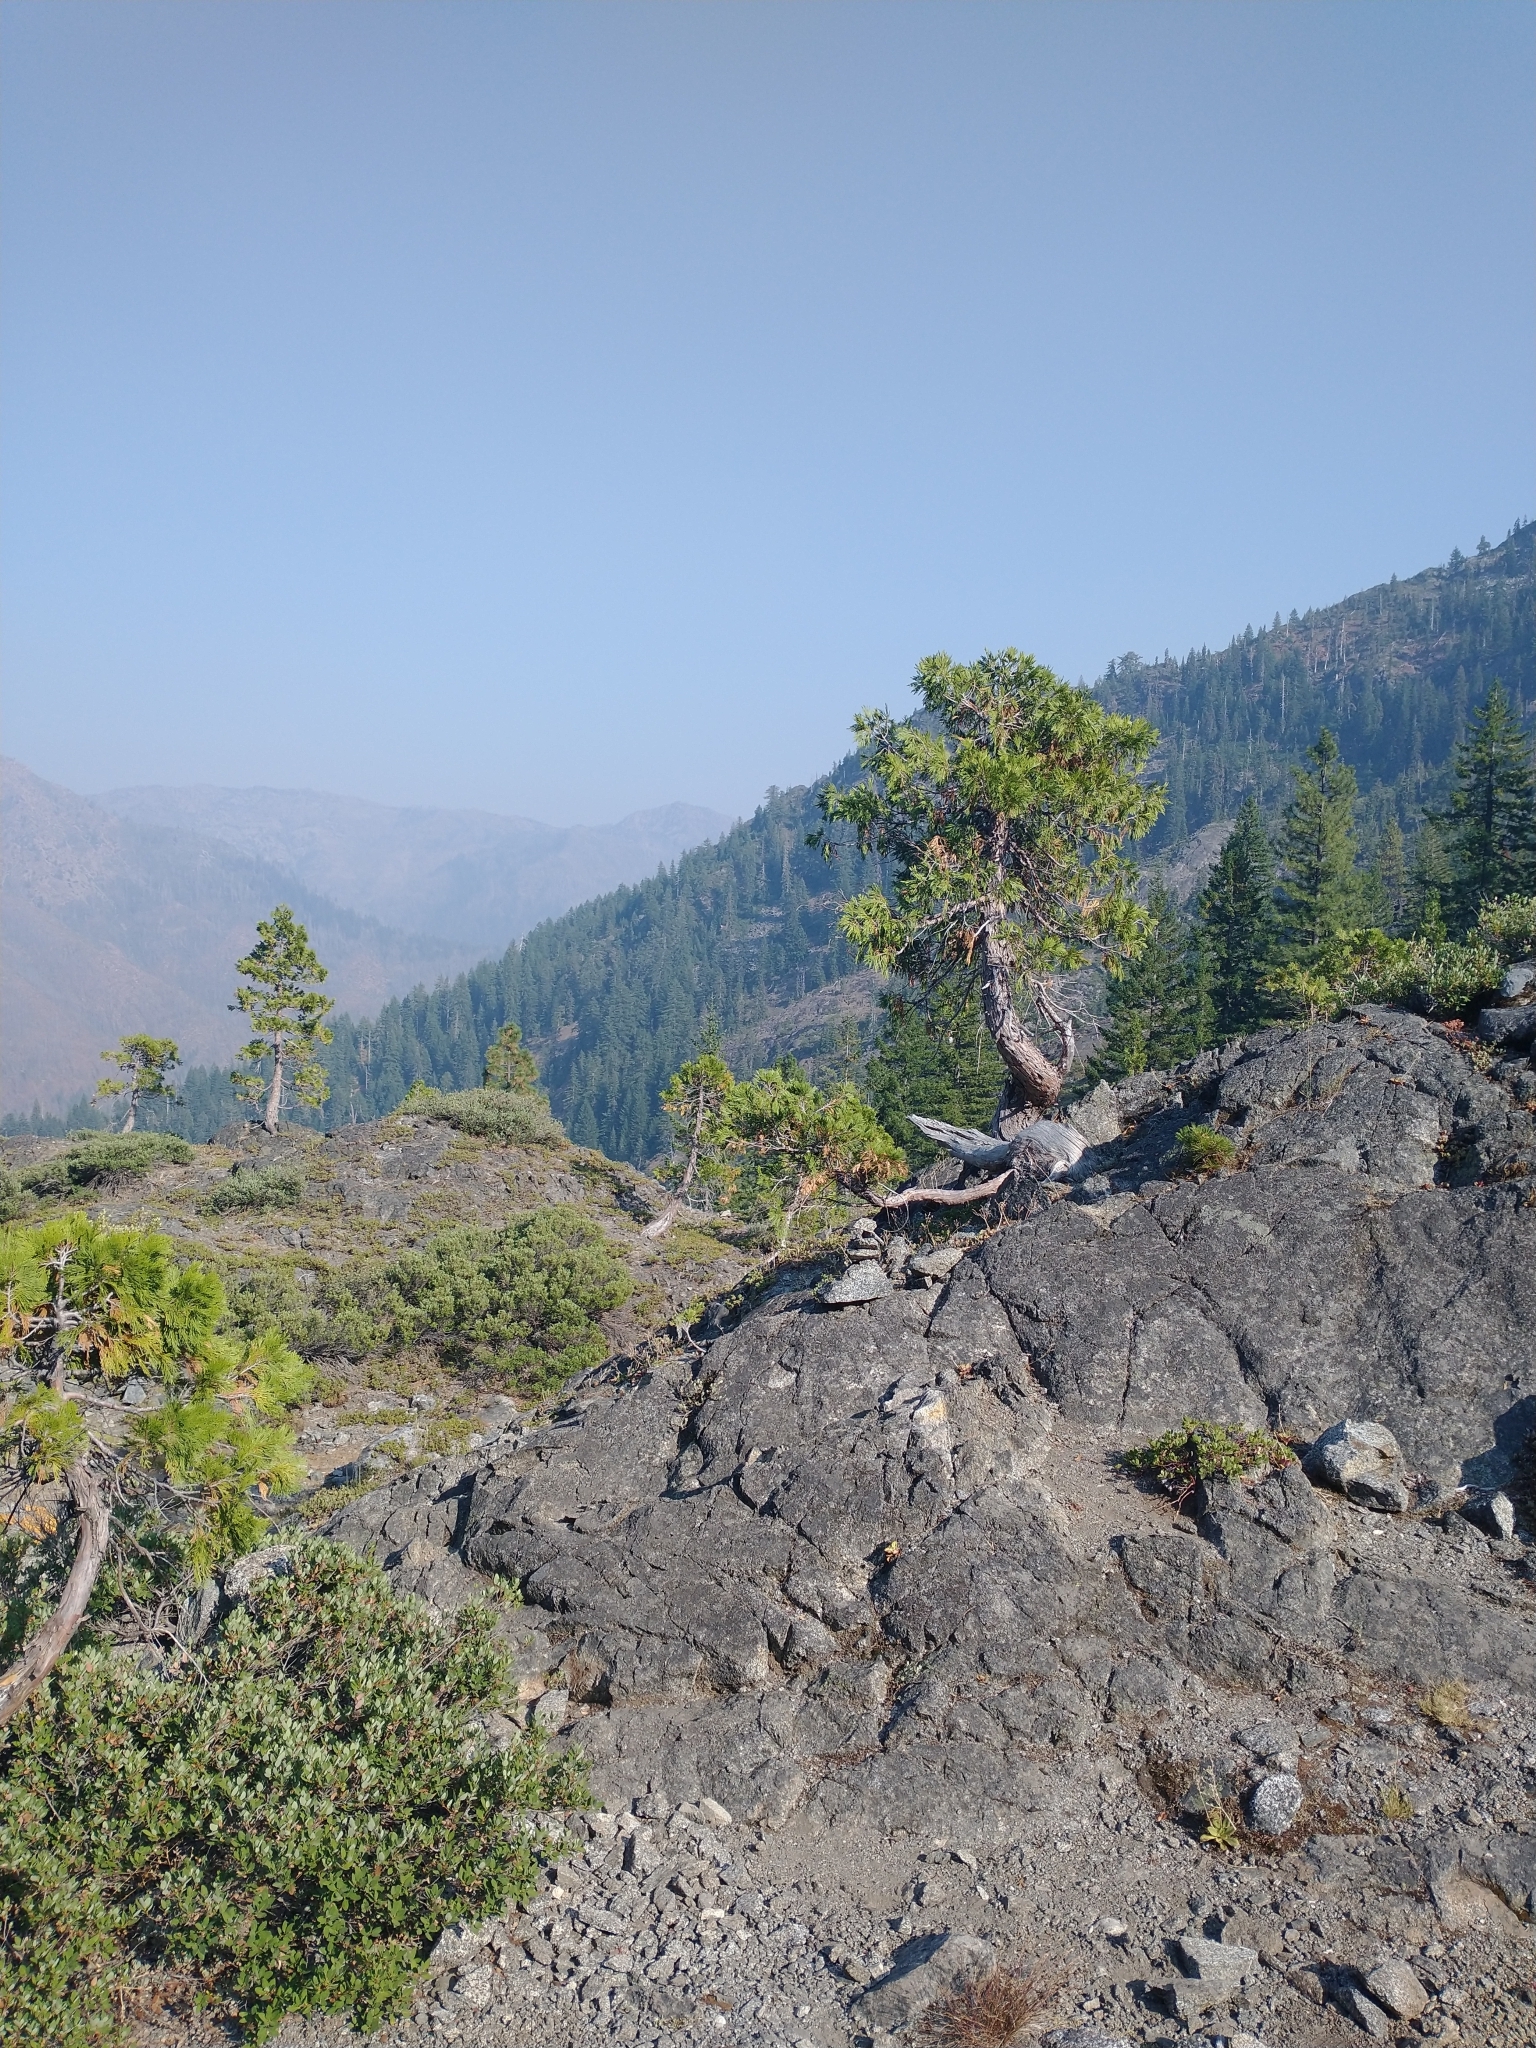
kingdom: Plantae
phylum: Tracheophyta
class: Pinopsida
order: Pinales
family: Cupressaceae
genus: Calocedrus
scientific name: Calocedrus decurrens
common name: Californian incense-cedar
